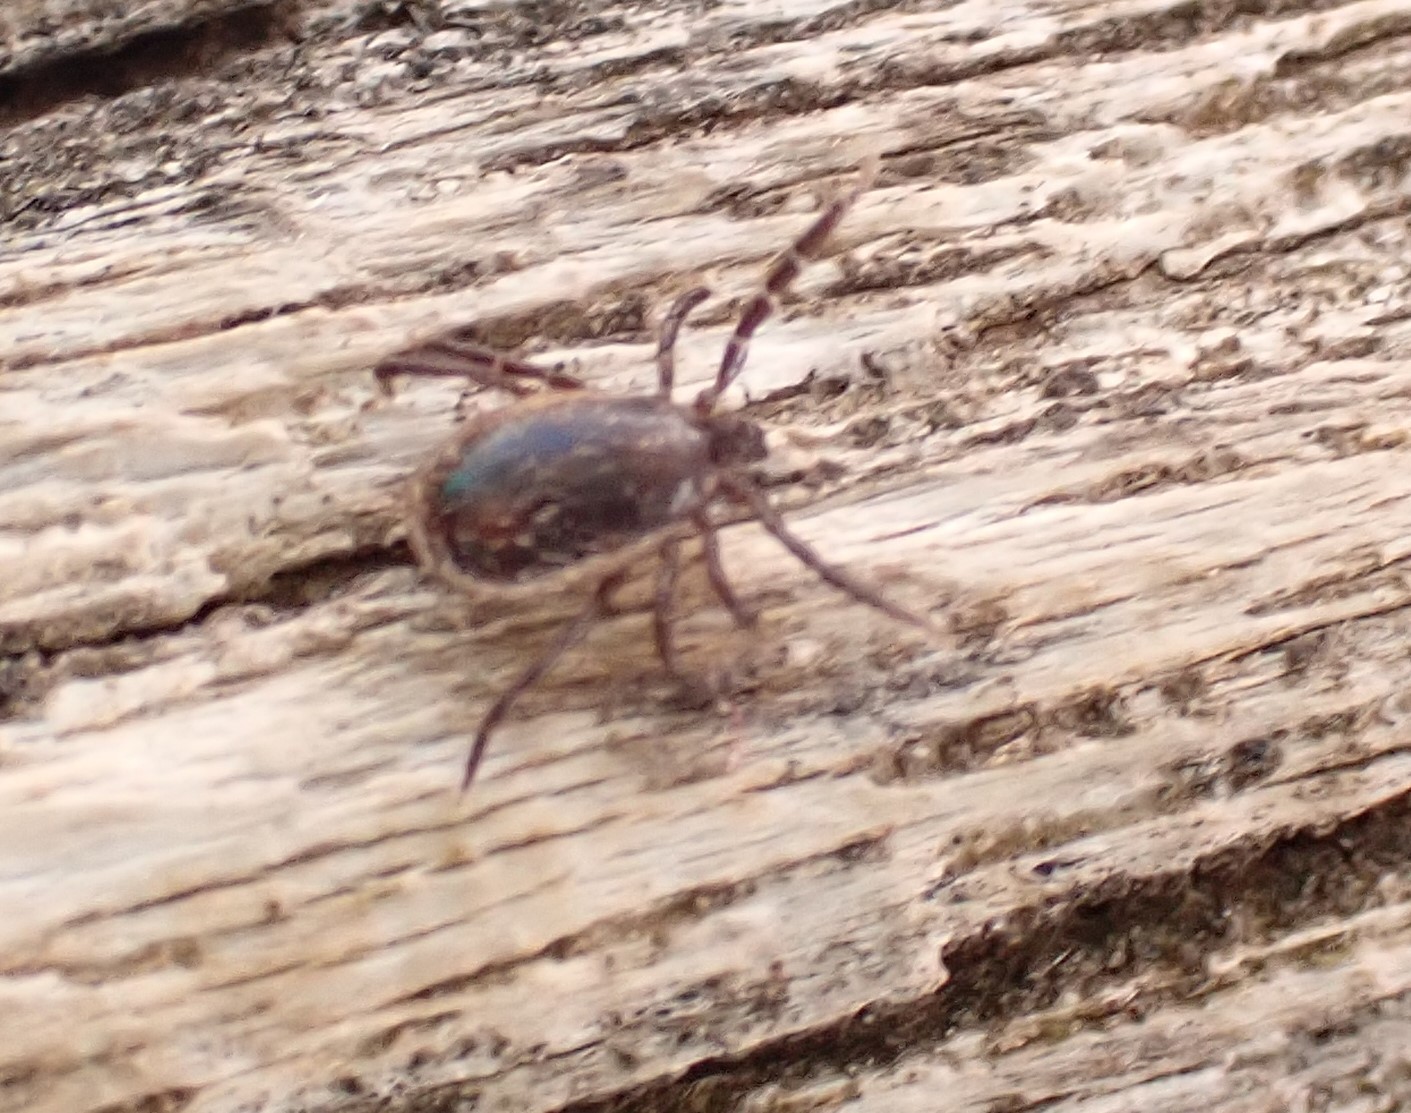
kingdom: Animalia
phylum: Arthropoda
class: Arachnida
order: Ixodida
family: Ixodidae
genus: Ixodes
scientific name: Ixodes ricinus
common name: Castor bean tick
